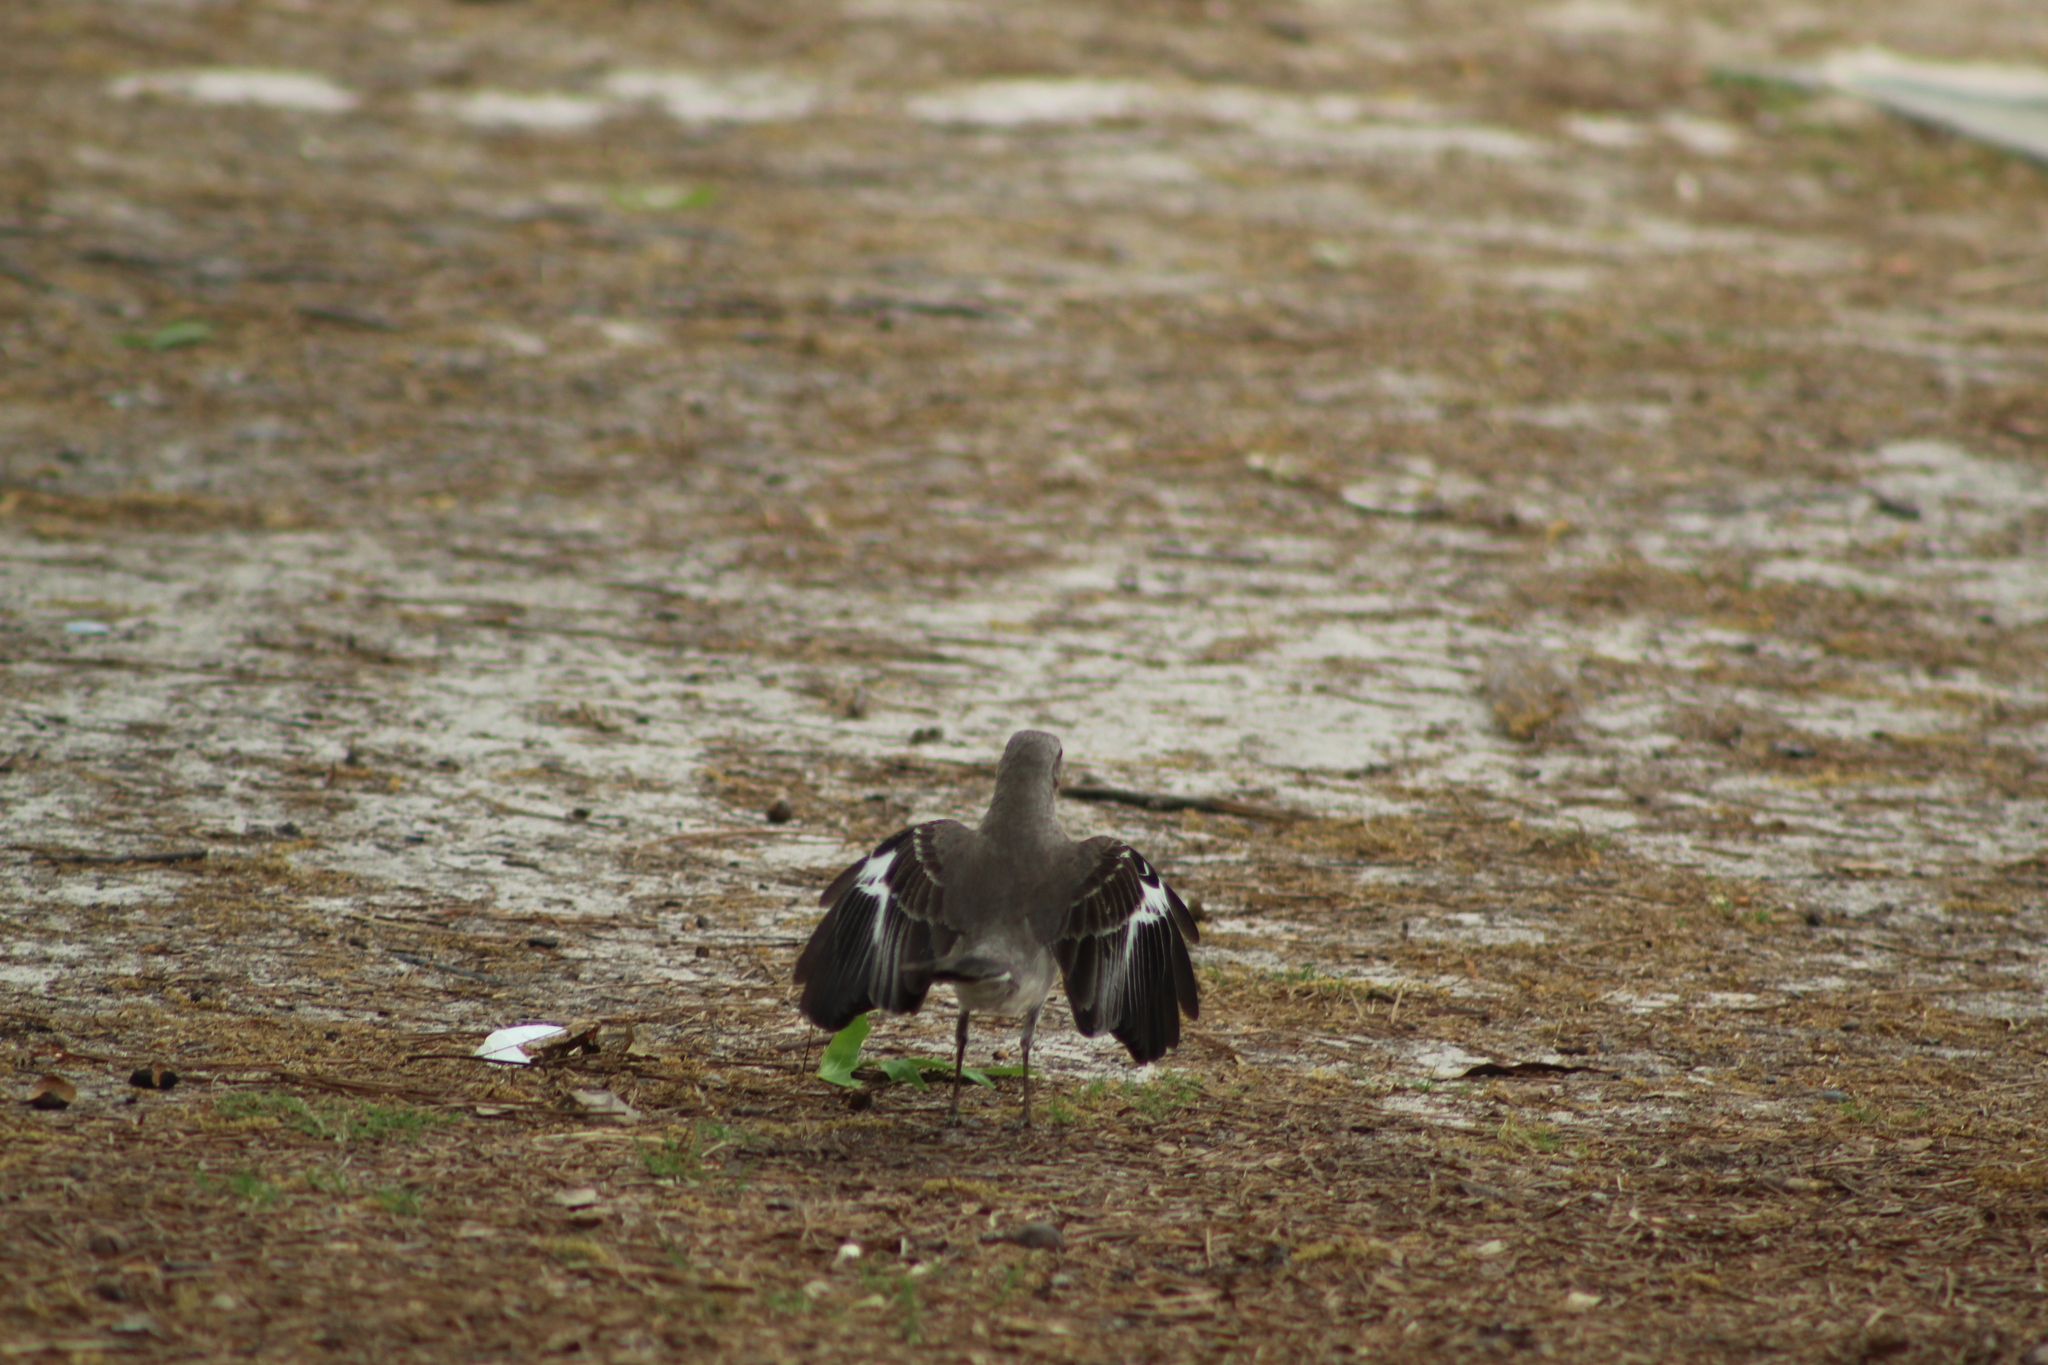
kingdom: Animalia
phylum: Chordata
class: Aves
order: Passeriformes
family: Mimidae
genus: Mimus
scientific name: Mimus polyglottos
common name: Northern mockingbird
